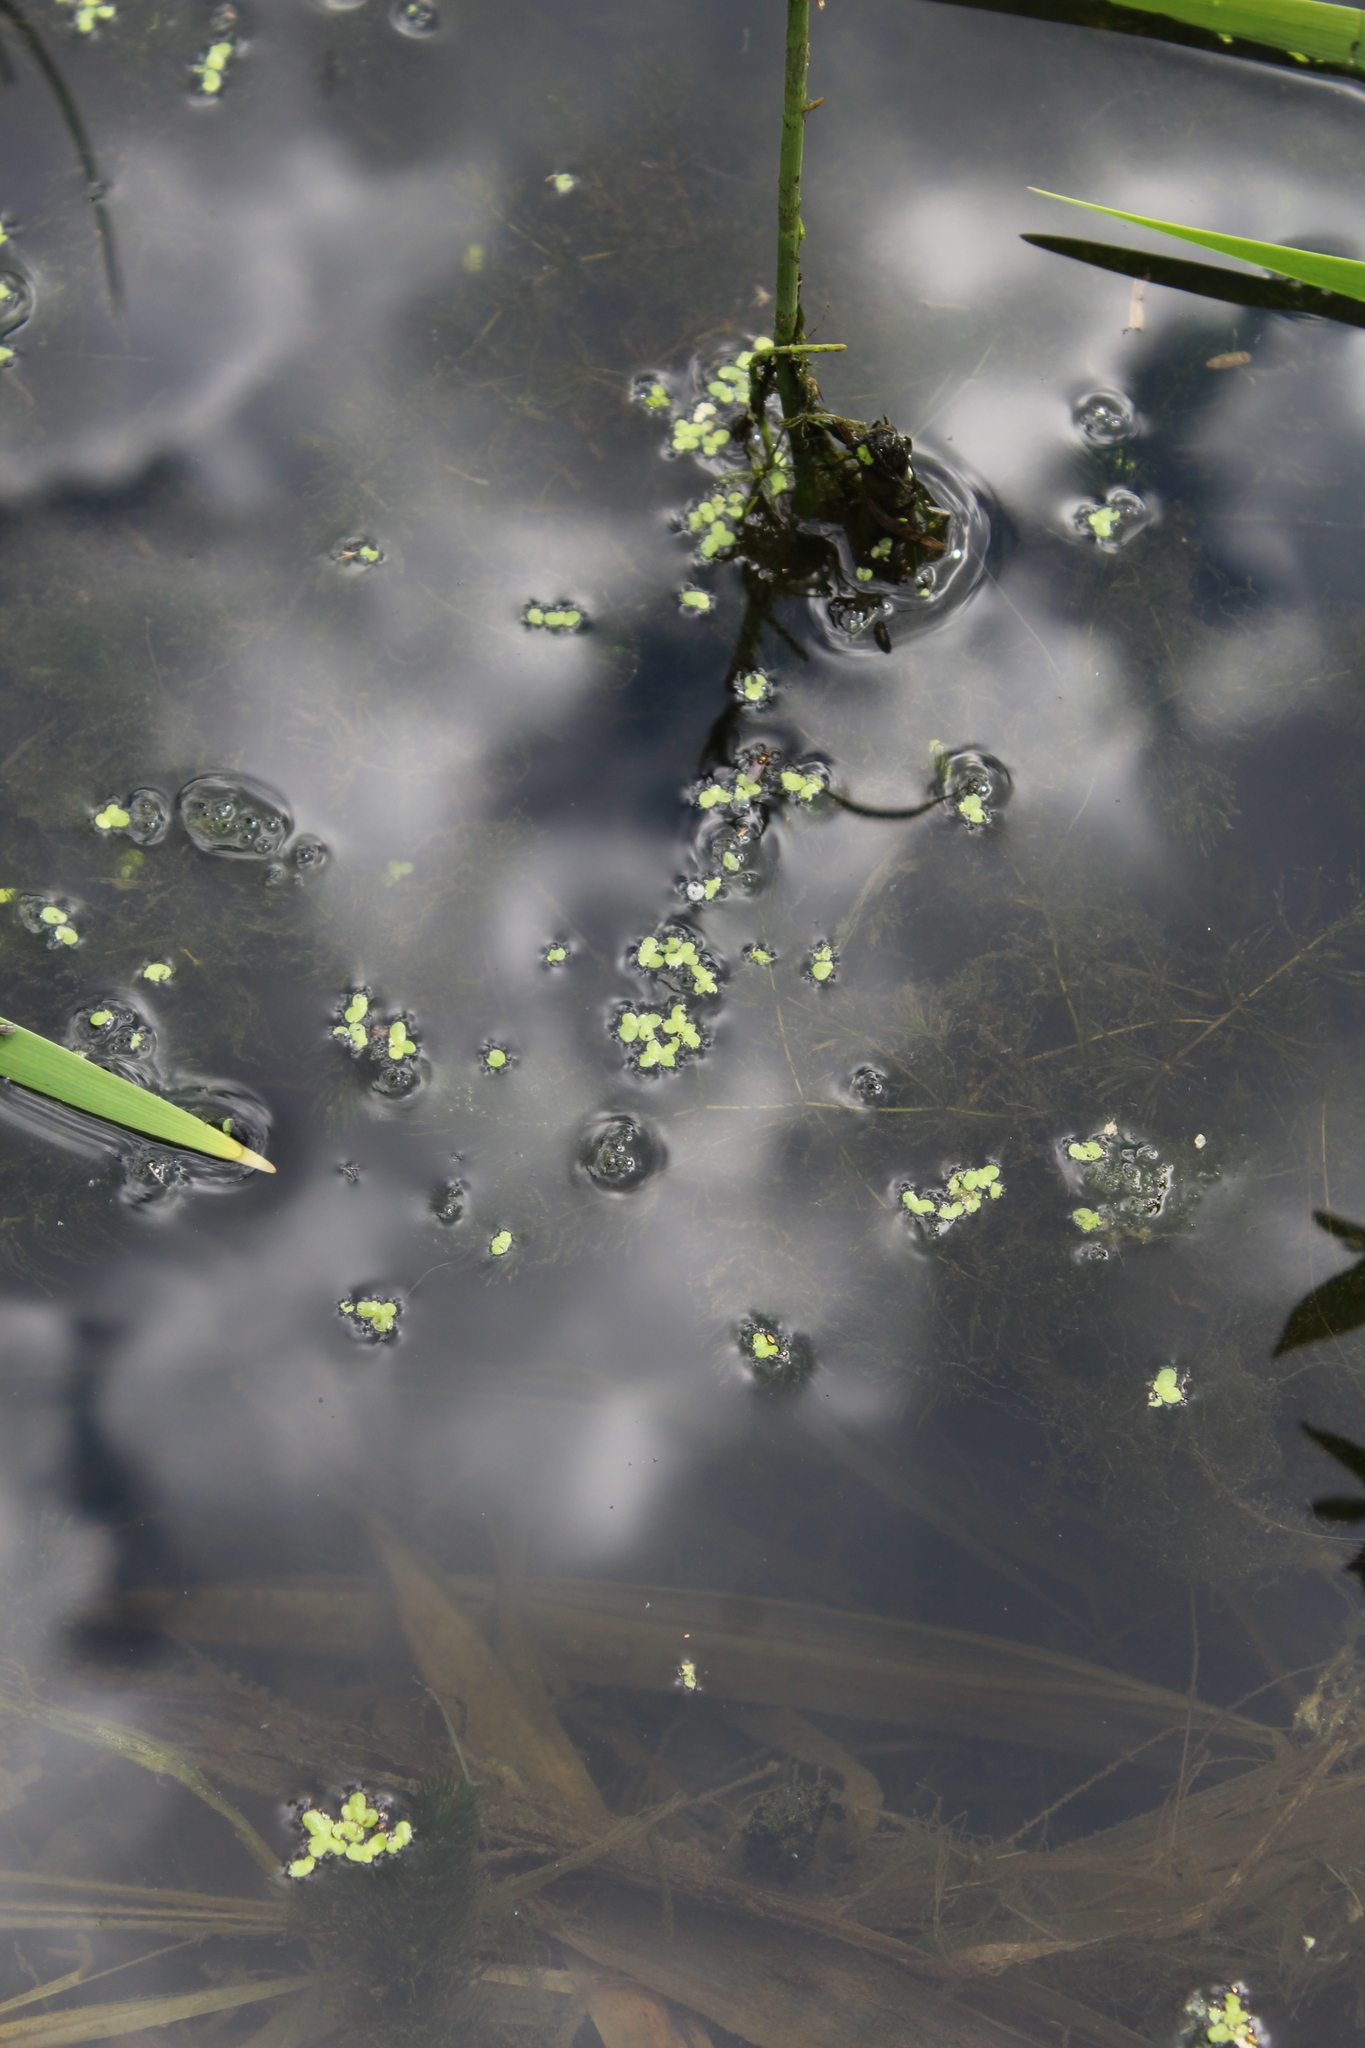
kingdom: Plantae
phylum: Tracheophyta
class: Liliopsida
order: Alismatales
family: Araceae
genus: Lemna
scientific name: Lemna minor
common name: Common duckweed
